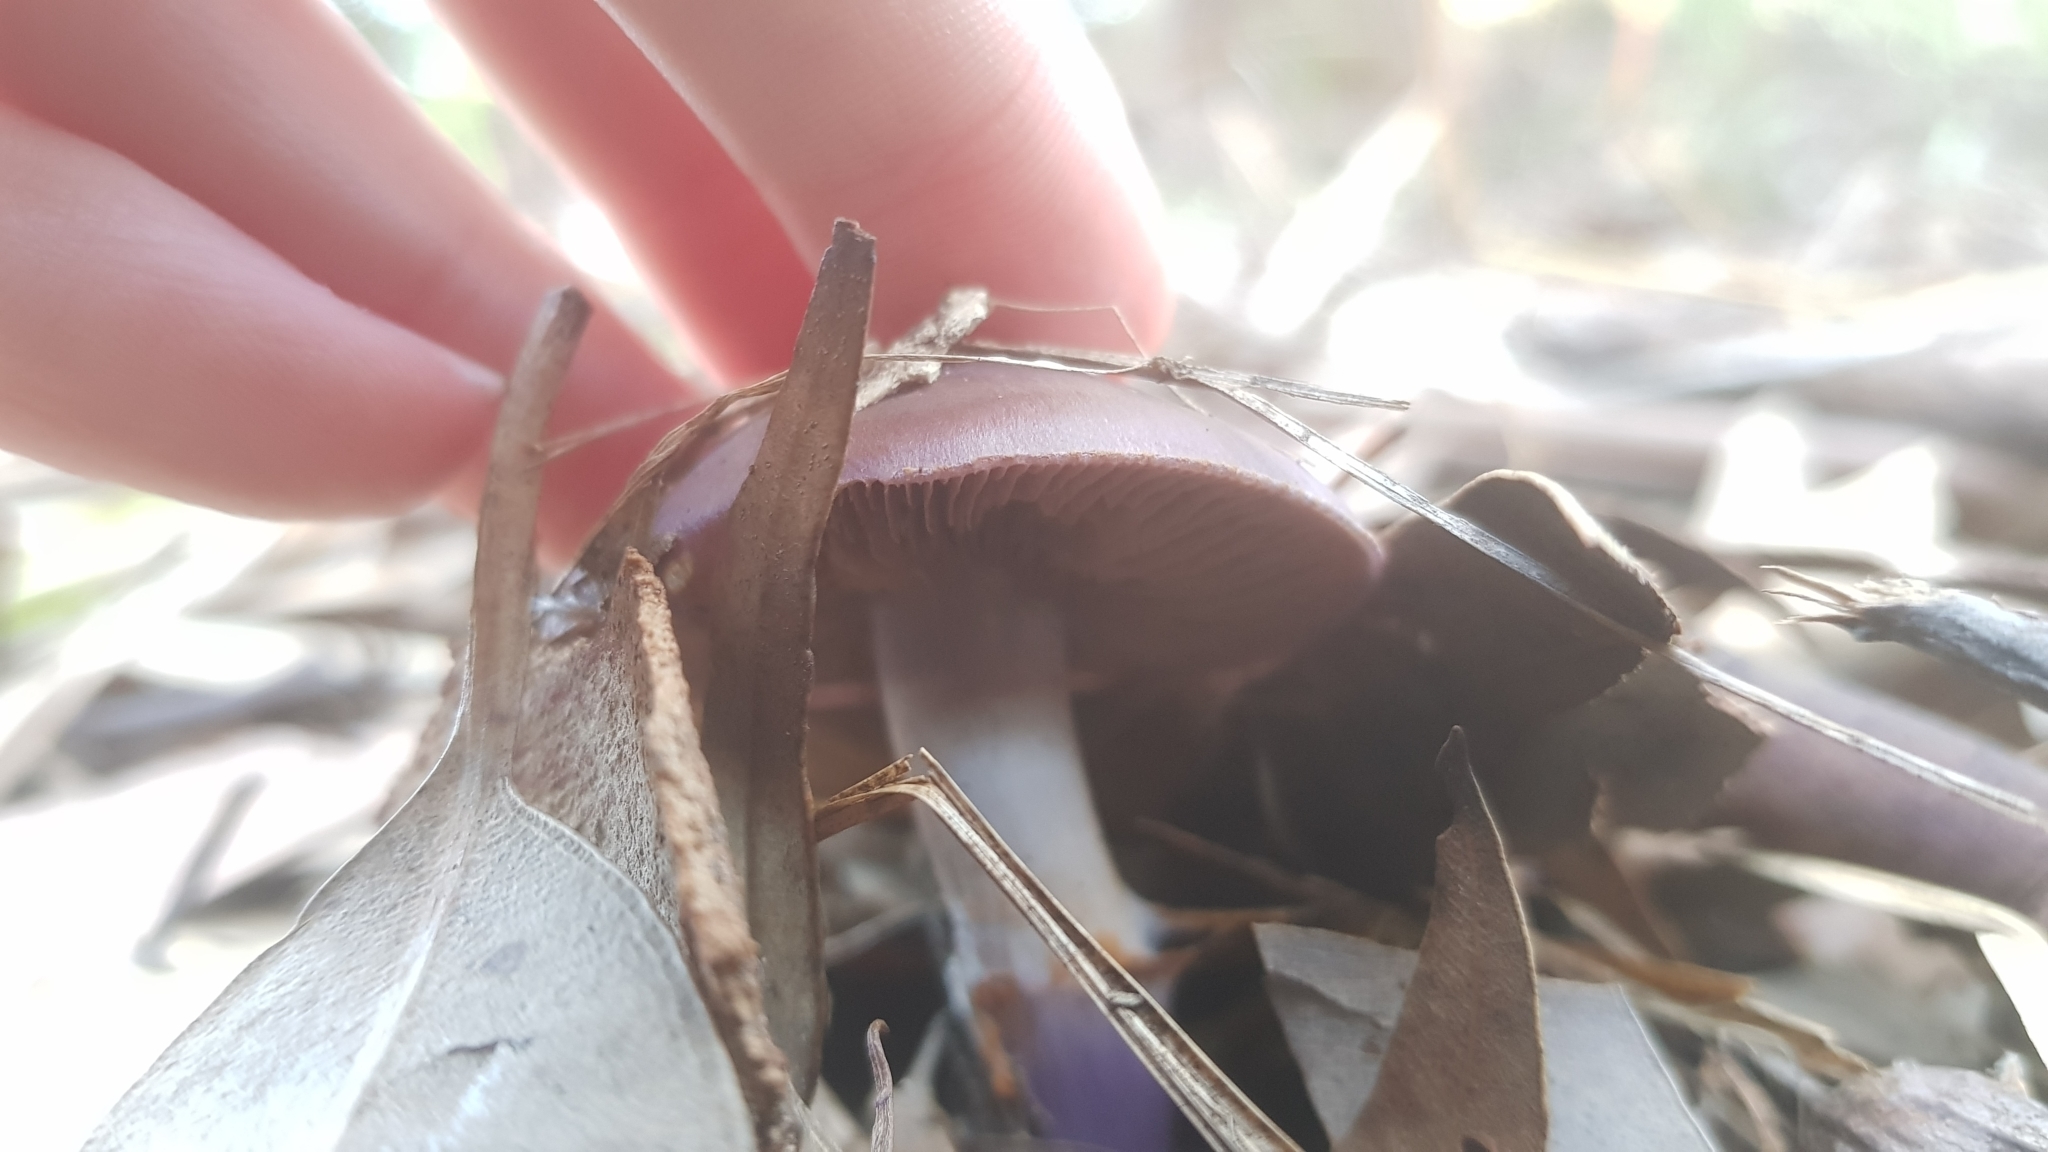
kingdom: Fungi
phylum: Basidiomycota
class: Agaricomycetes
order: Agaricales
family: Cortinariaceae
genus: Cortinarius
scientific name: Cortinarius archeri
